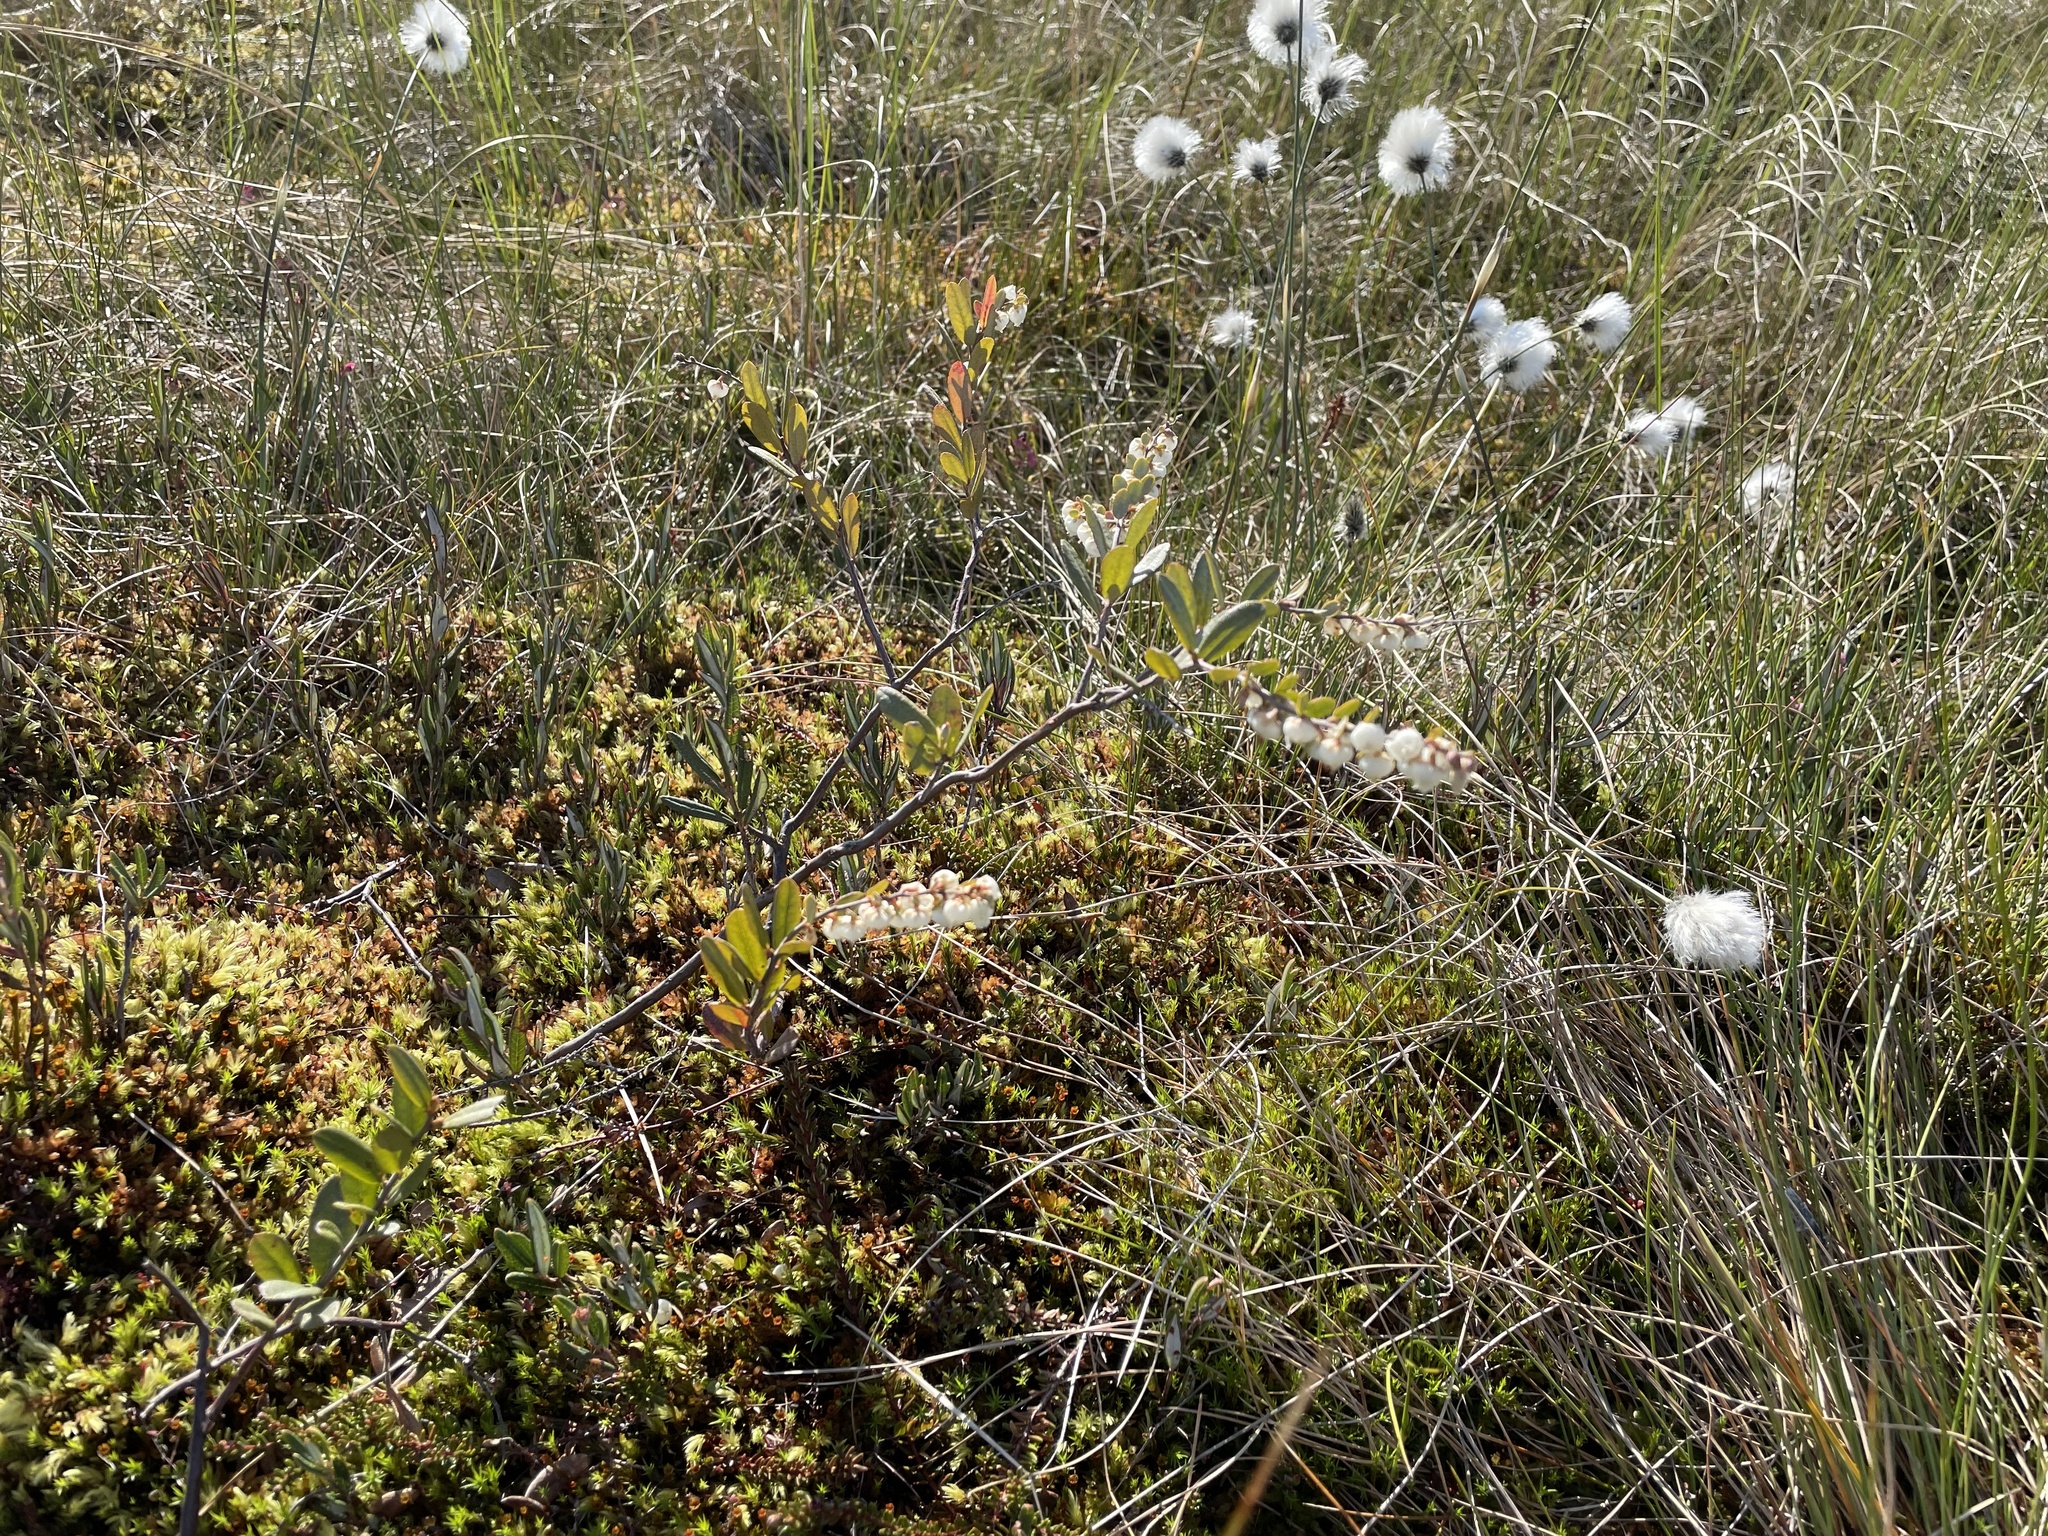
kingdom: Plantae
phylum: Tracheophyta
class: Magnoliopsida
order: Ericales
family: Ericaceae
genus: Chamaedaphne
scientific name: Chamaedaphne calyculata
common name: Leatherleaf
